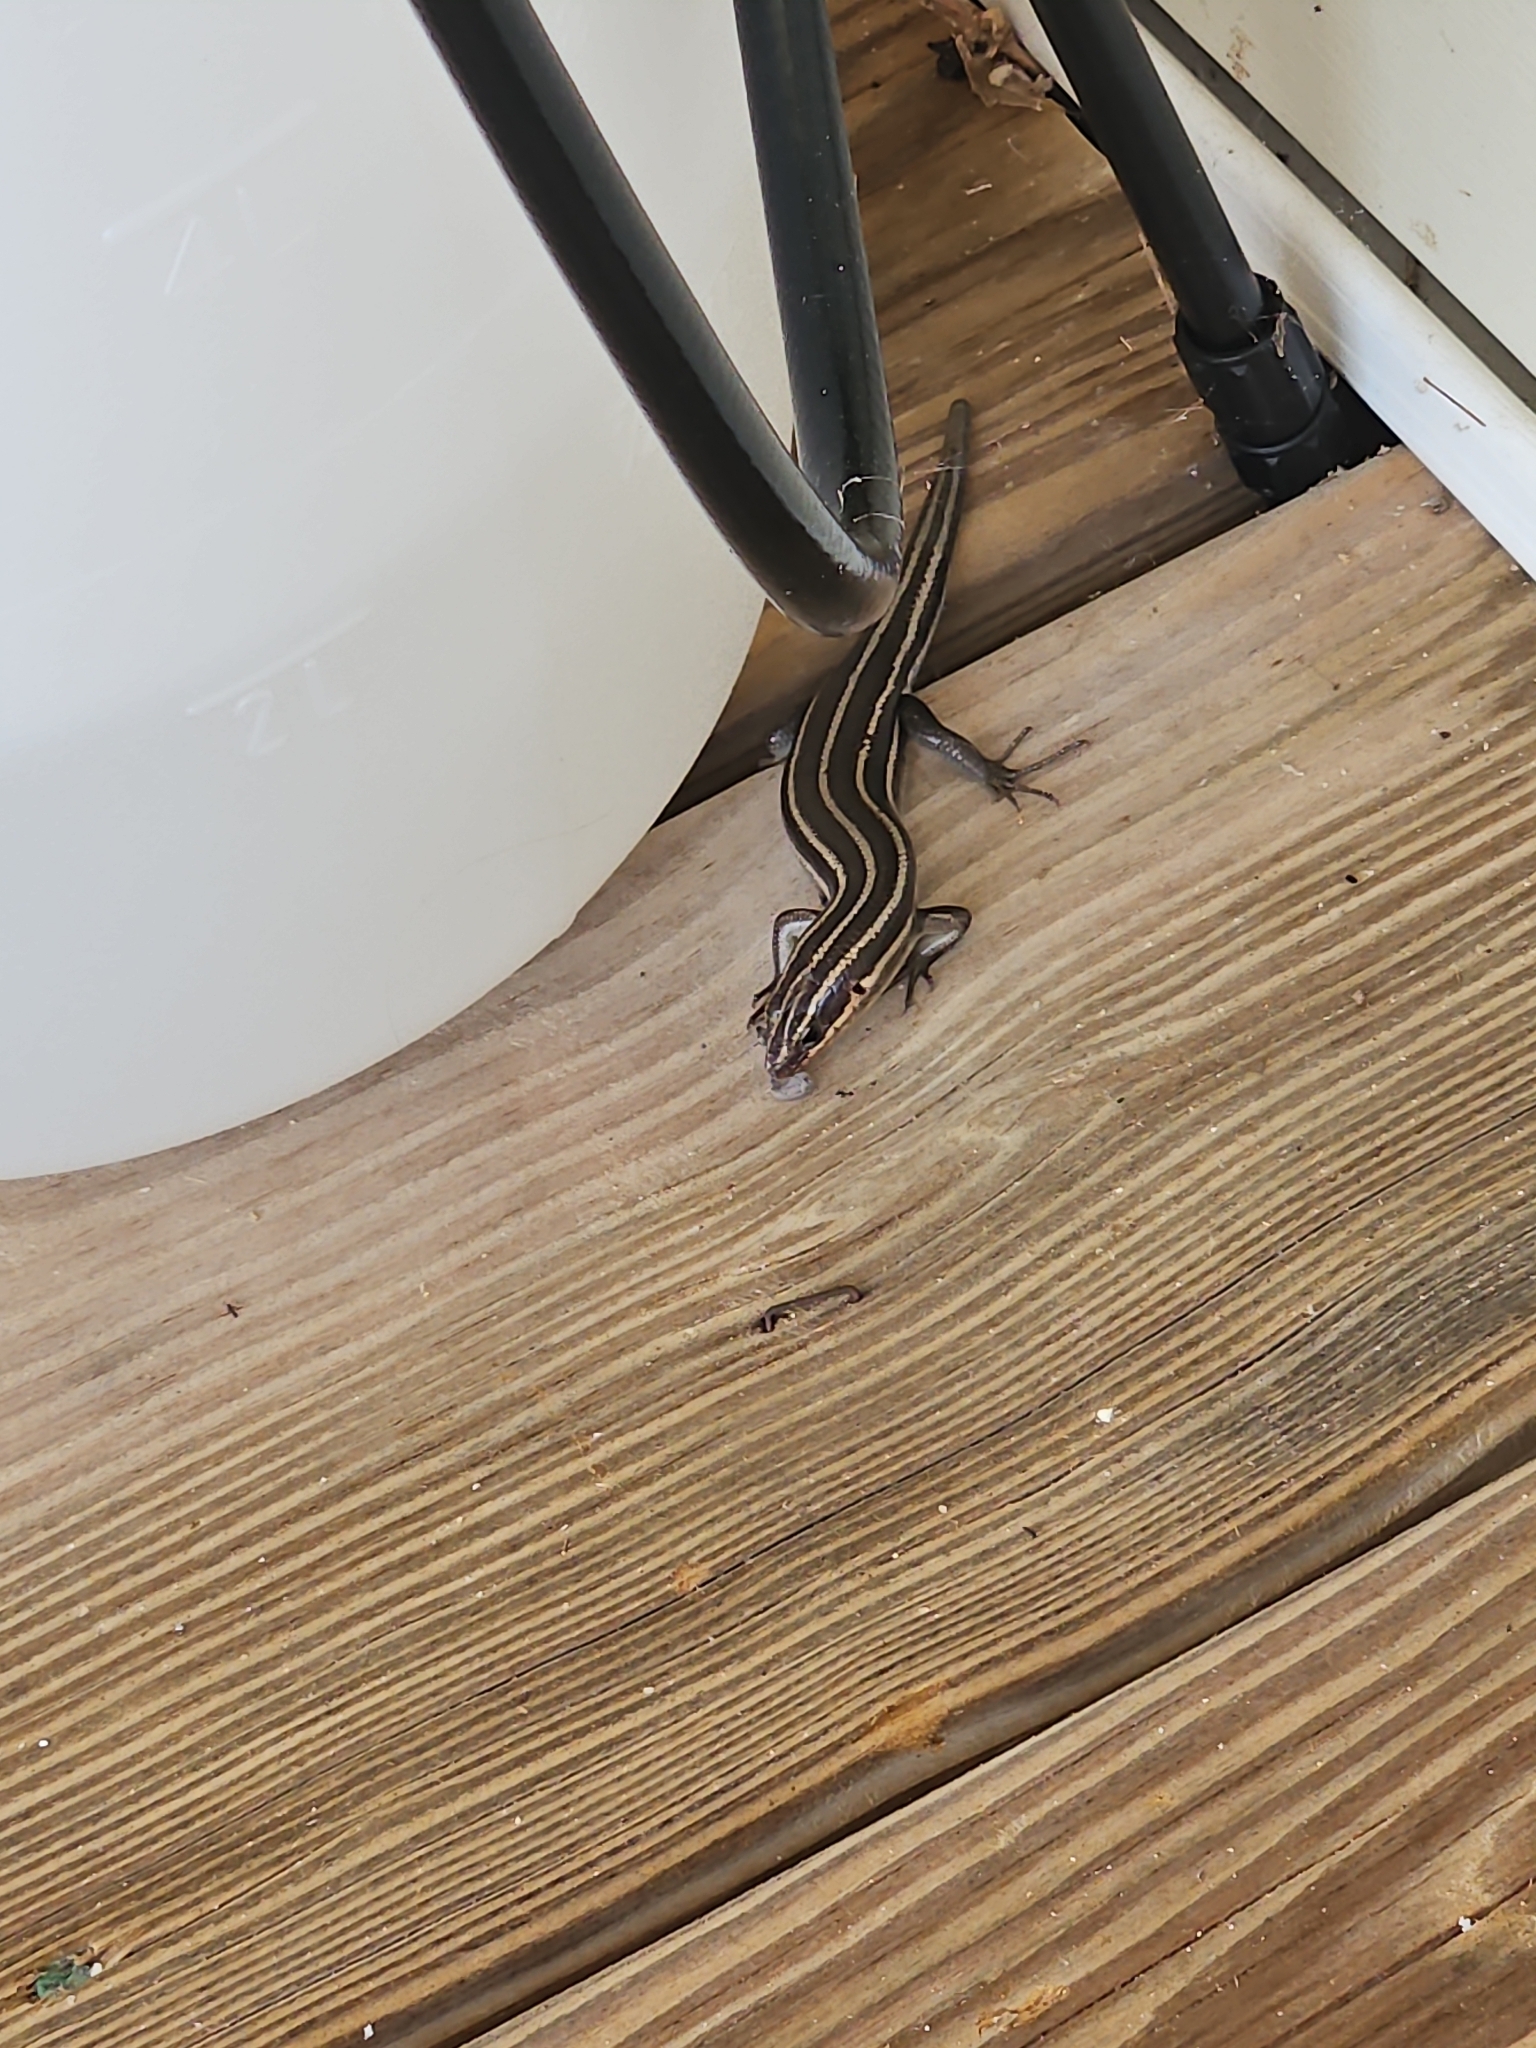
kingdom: Animalia
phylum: Chordata
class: Squamata
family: Scincidae
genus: Plestiodon
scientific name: Plestiodon fasciatus
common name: Five-lined skink
